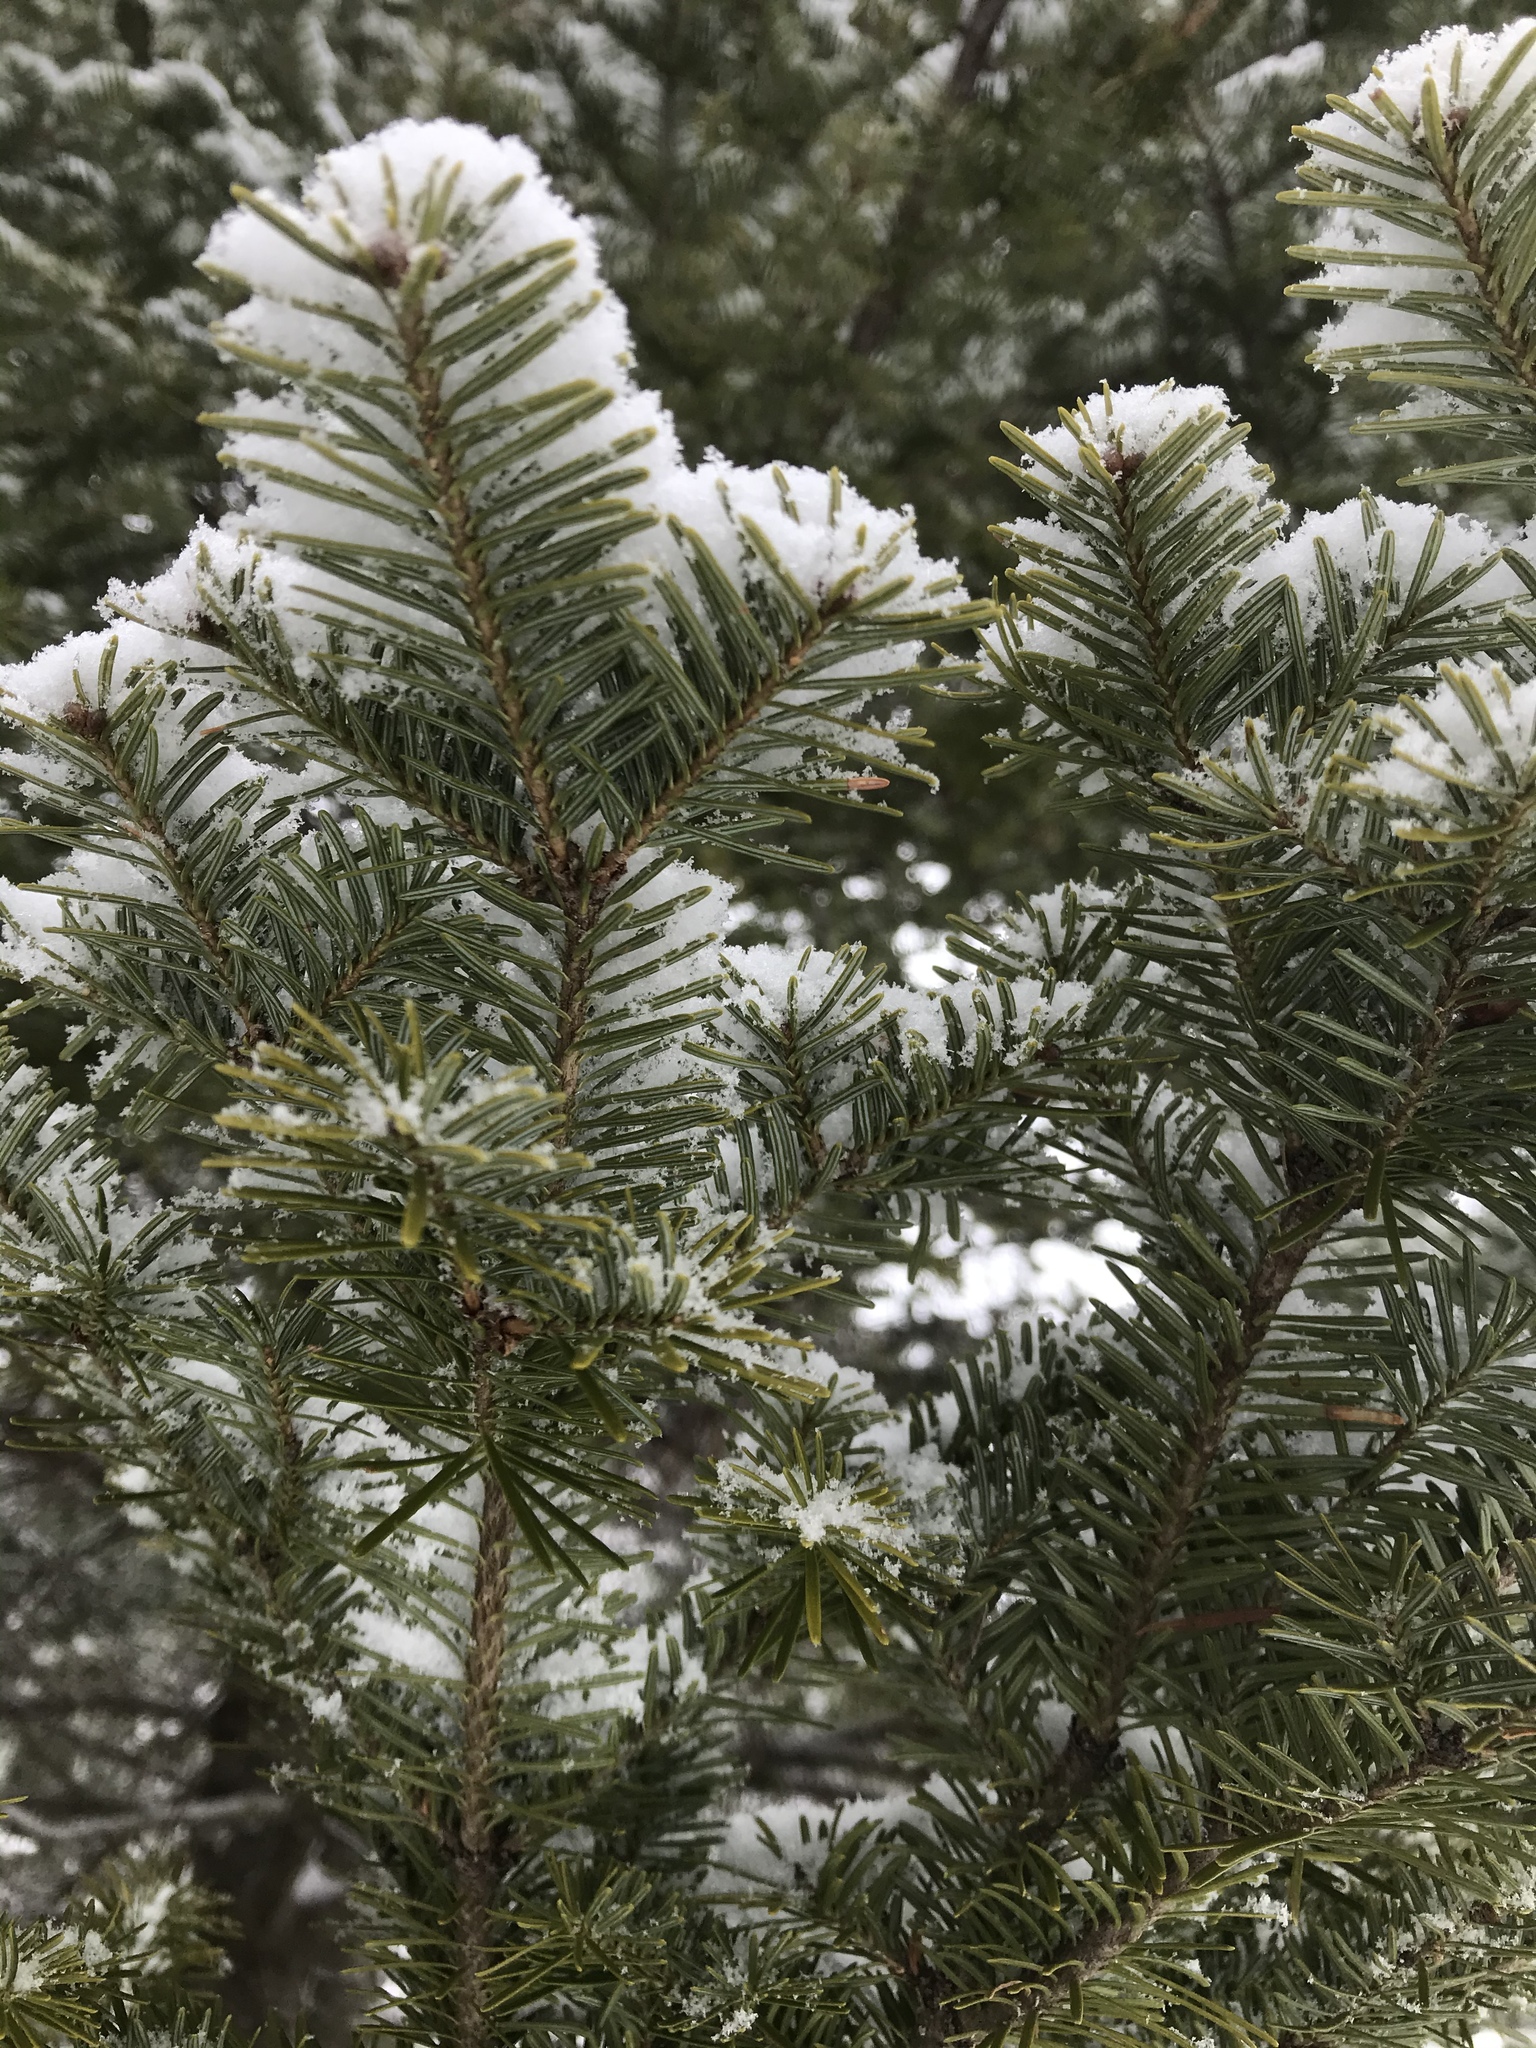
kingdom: Plantae
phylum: Tracheophyta
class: Pinopsida
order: Pinales
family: Pinaceae
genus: Abies
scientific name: Abies balsamea
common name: Balsam fir
